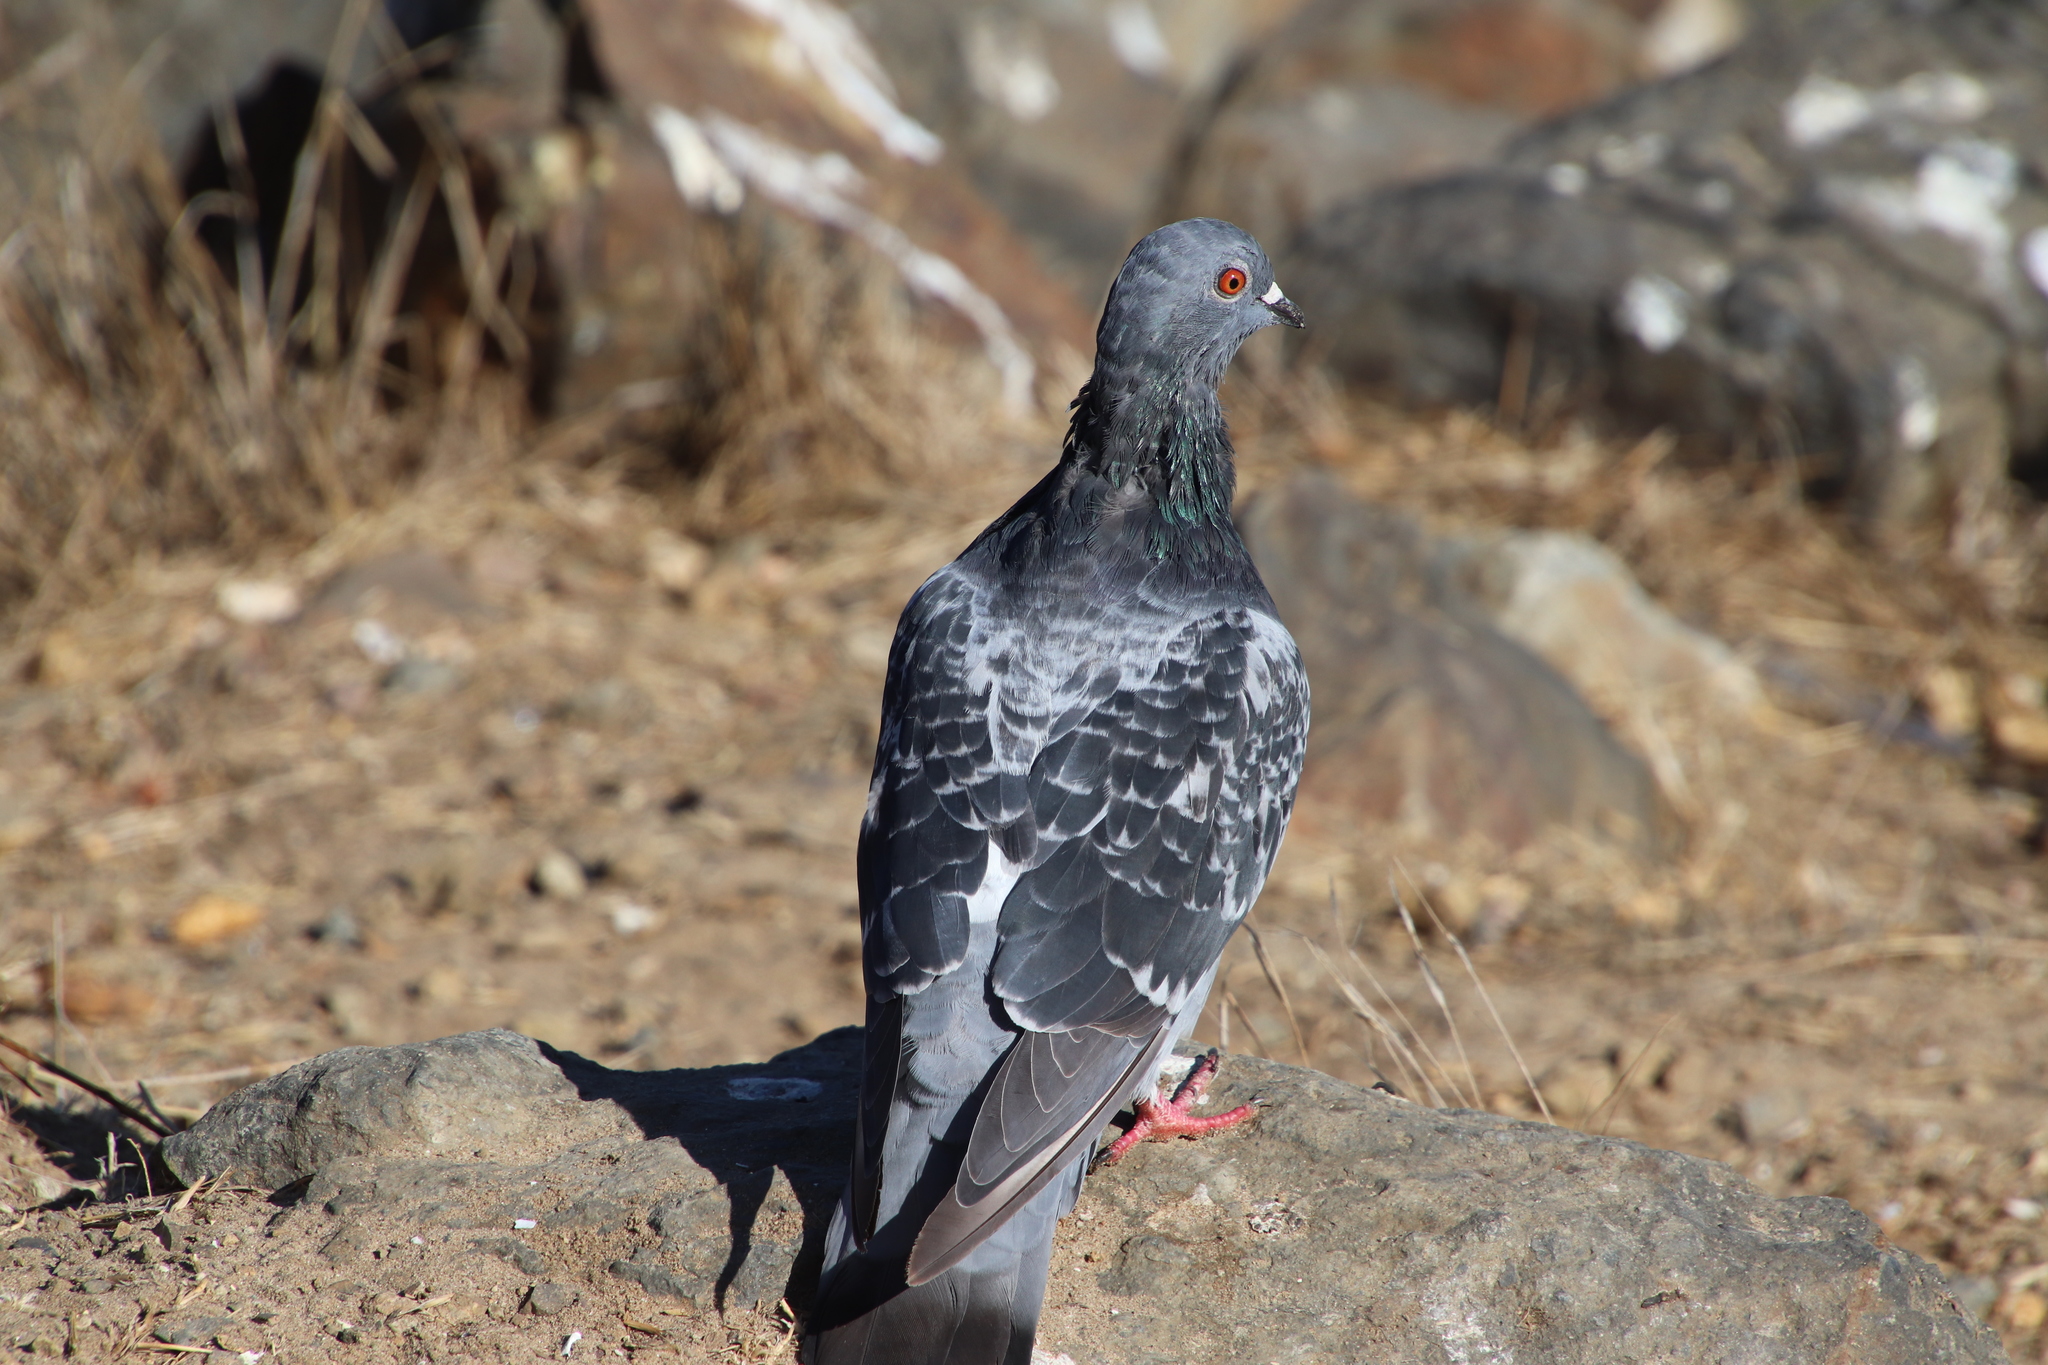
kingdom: Animalia
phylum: Chordata
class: Aves
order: Columbiformes
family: Columbidae
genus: Columba
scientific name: Columba livia
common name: Rock pigeon
